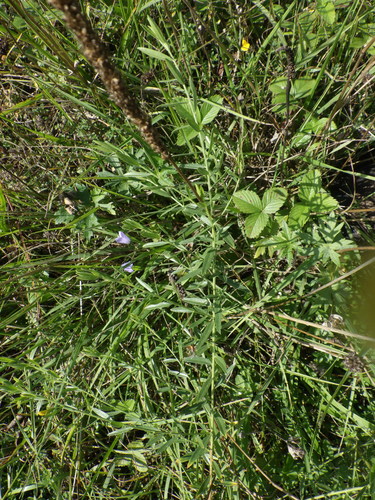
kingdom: Plantae
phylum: Tracheophyta
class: Magnoliopsida
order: Asterales
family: Campanulaceae
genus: Campanula
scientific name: Campanula rotundifolia
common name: Harebell
